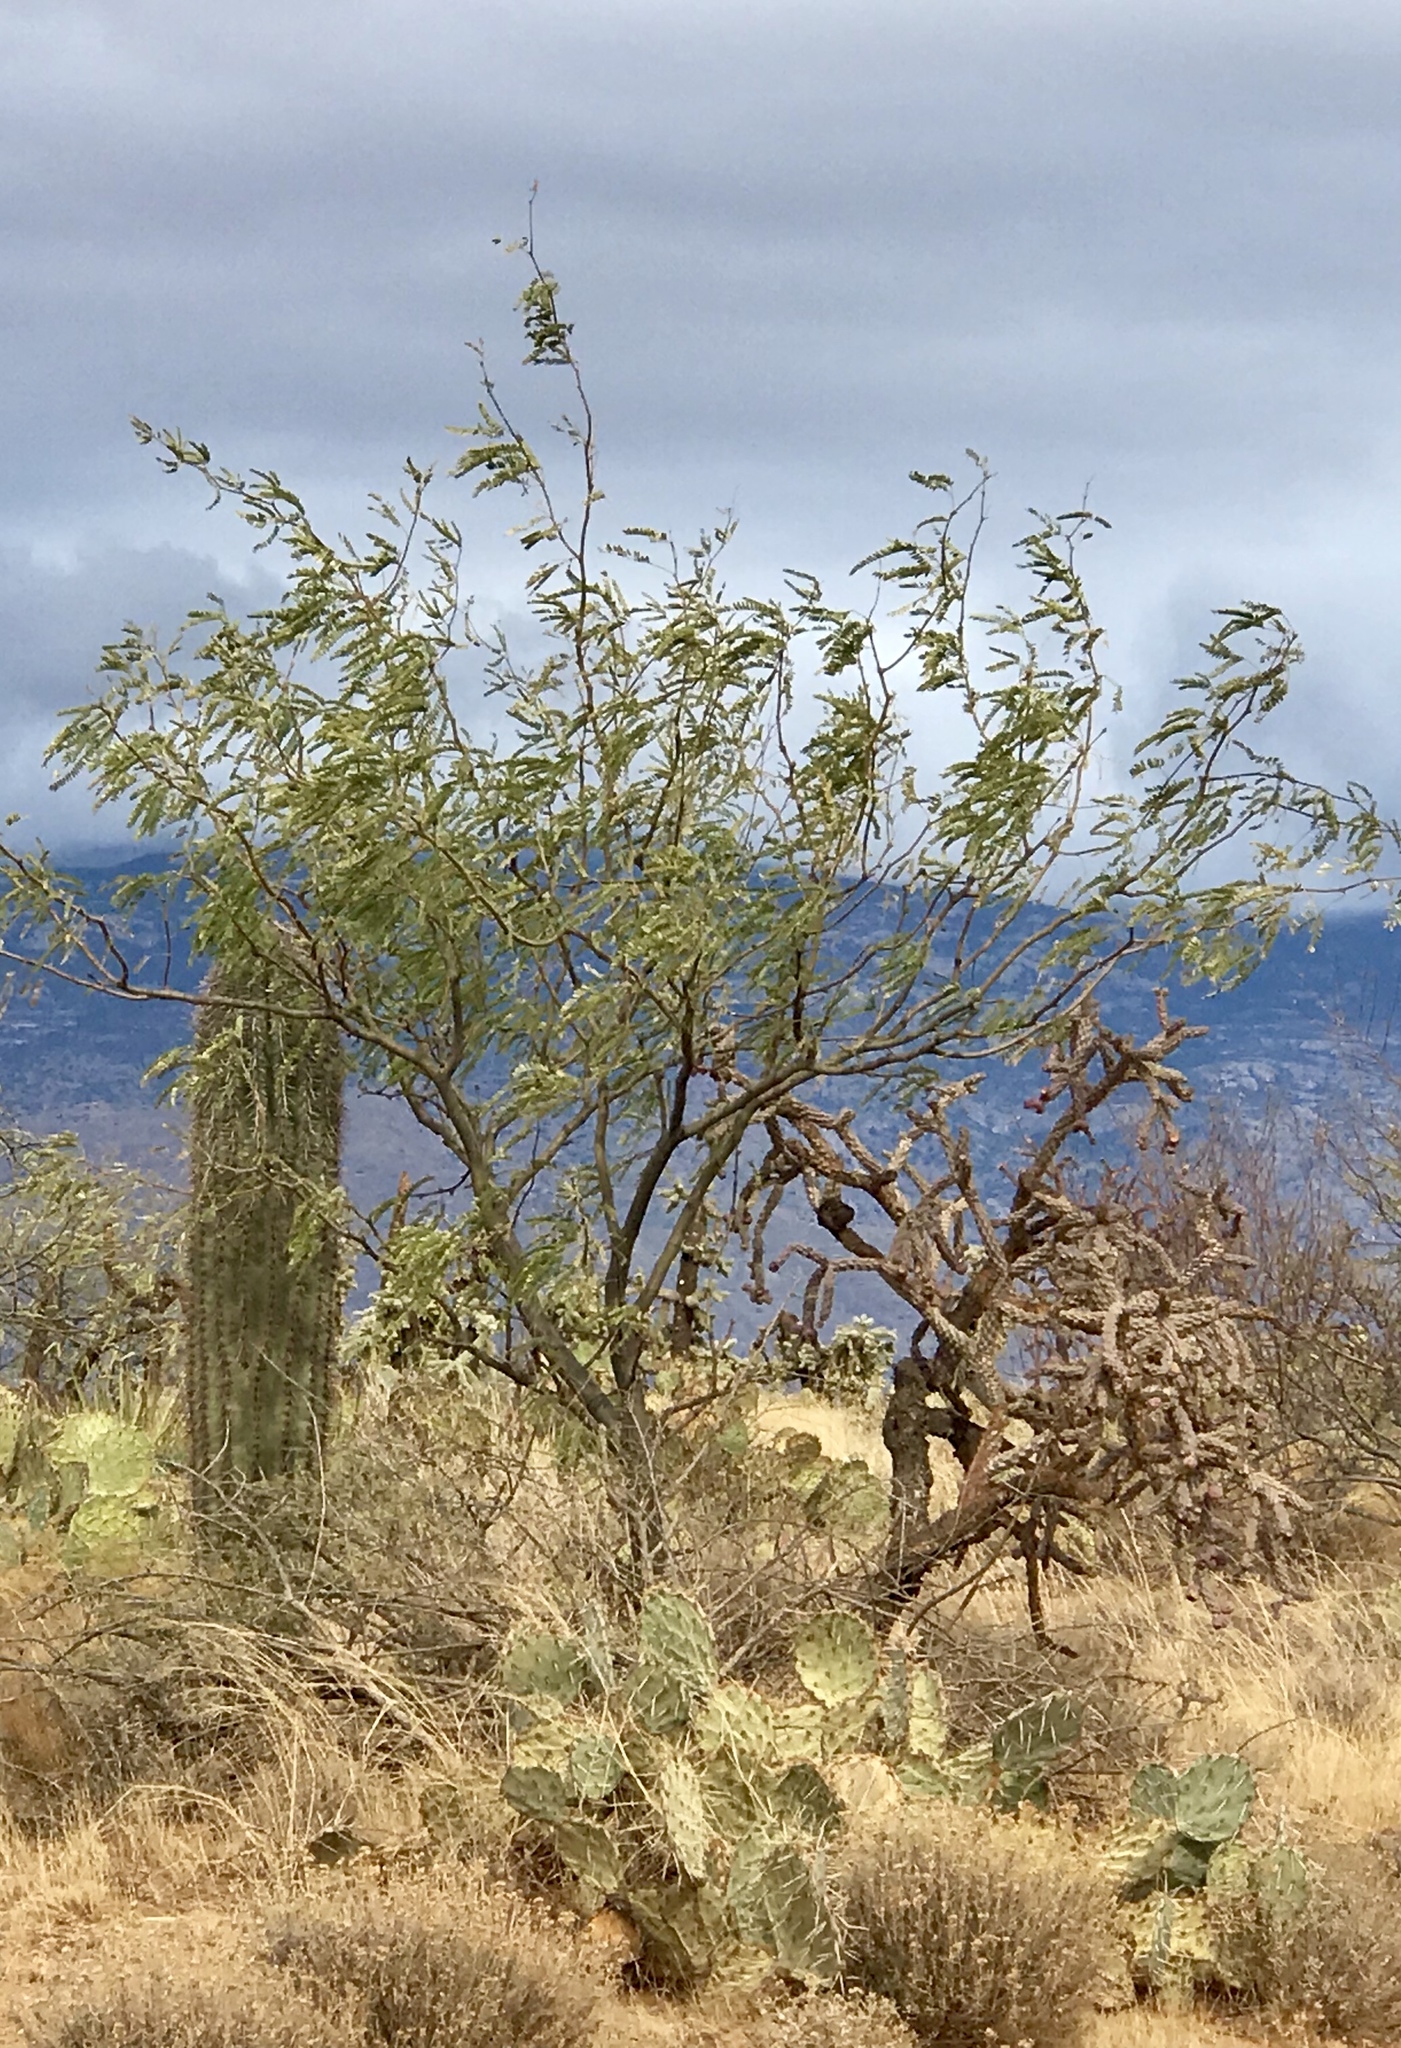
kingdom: Plantae
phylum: Tracheophyta
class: Magnoliopsida
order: Fabales
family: Fabaceae
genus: Prosopis
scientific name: Prosopis velutina
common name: Velvet mesquite
